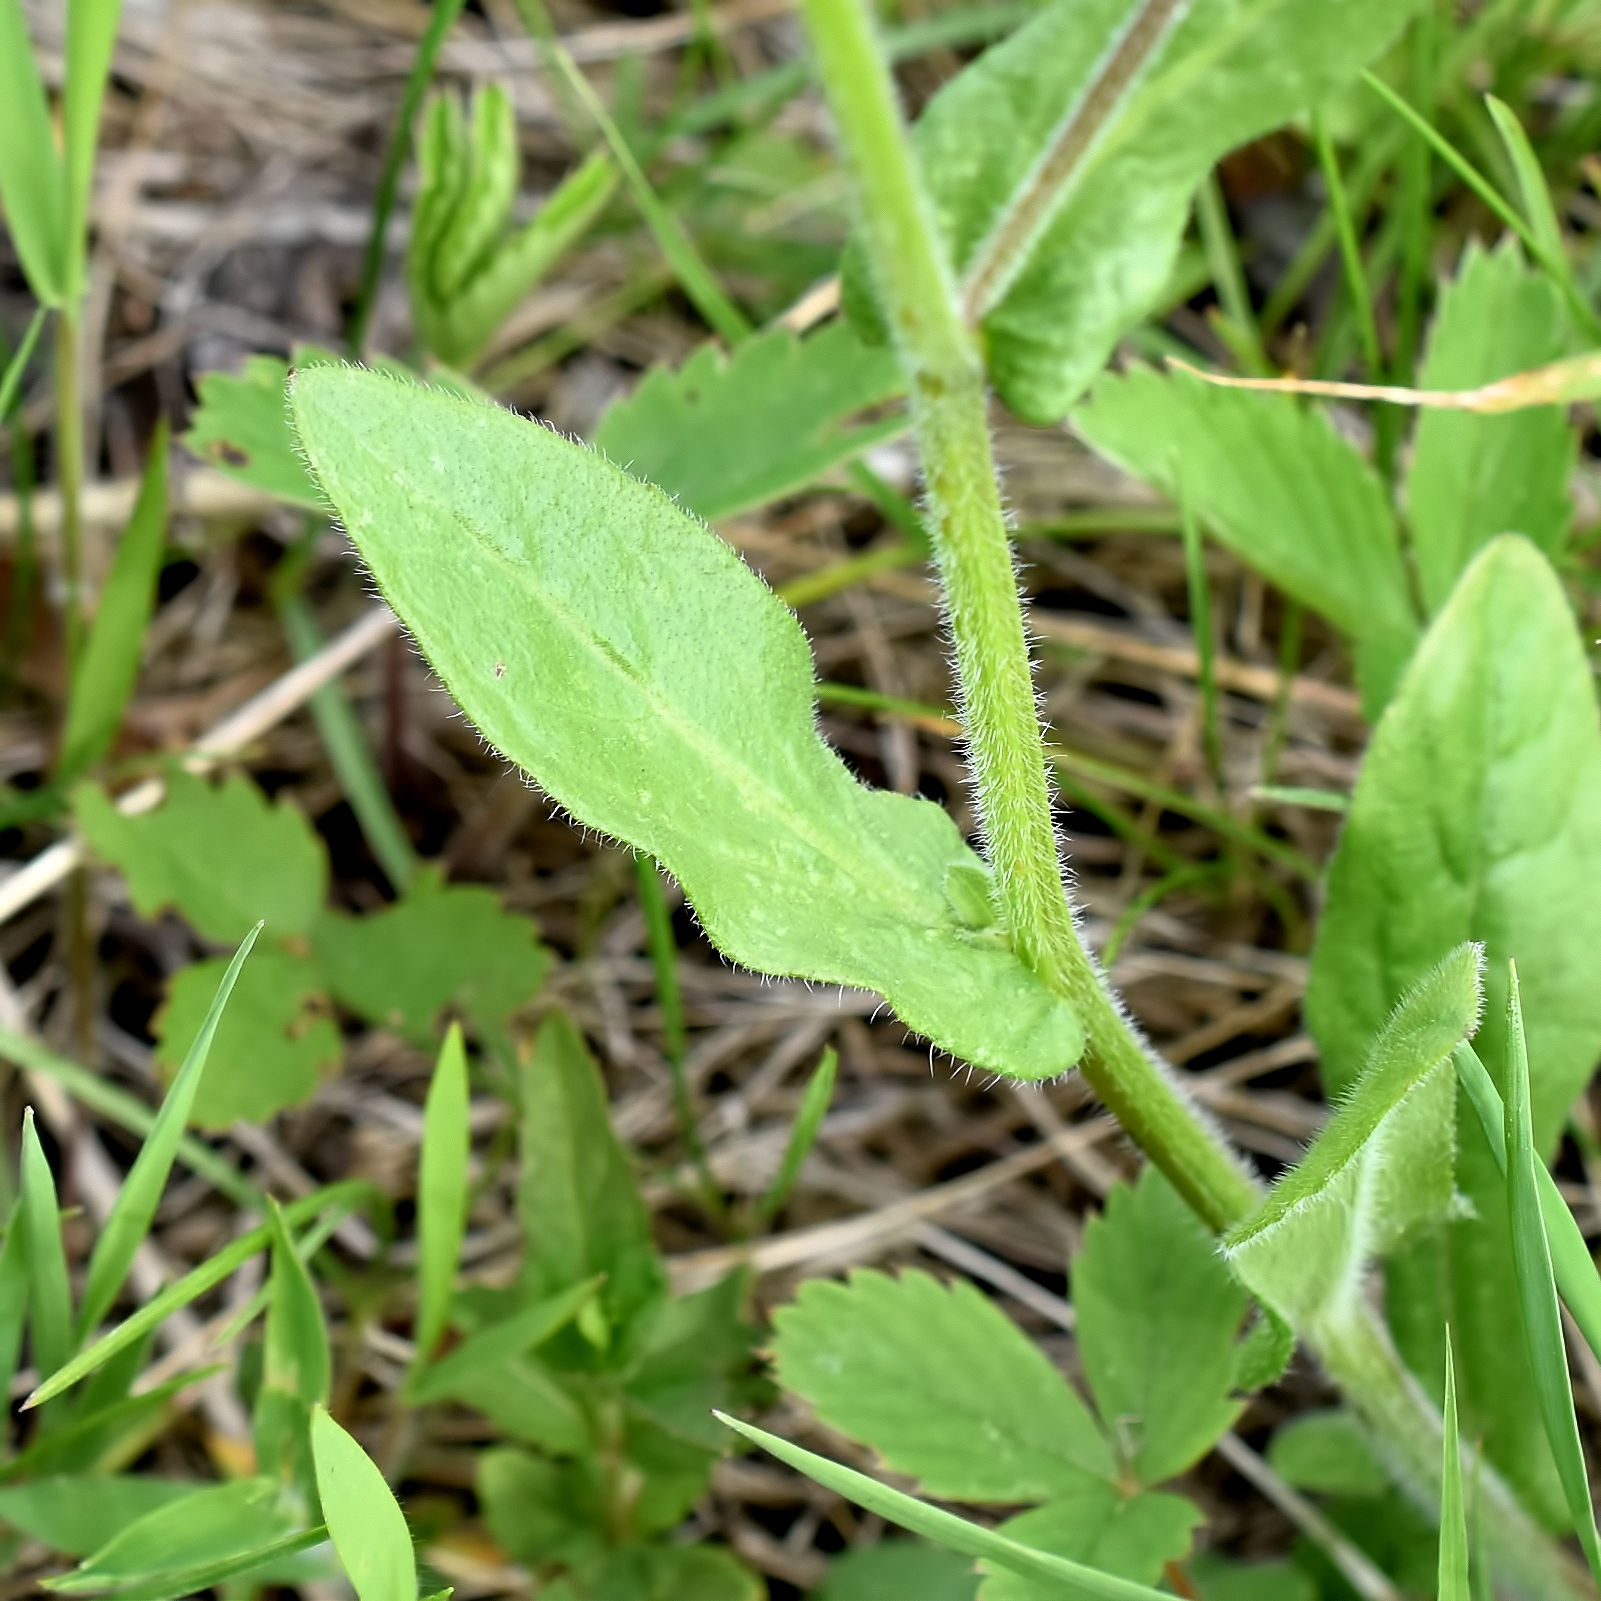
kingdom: Plantae
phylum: Tracheophyta
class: Magnoliopsida
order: Asterales
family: Asteraceae
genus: Erigeron
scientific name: Erigeron philadelphicus
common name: Robin's-plantain
